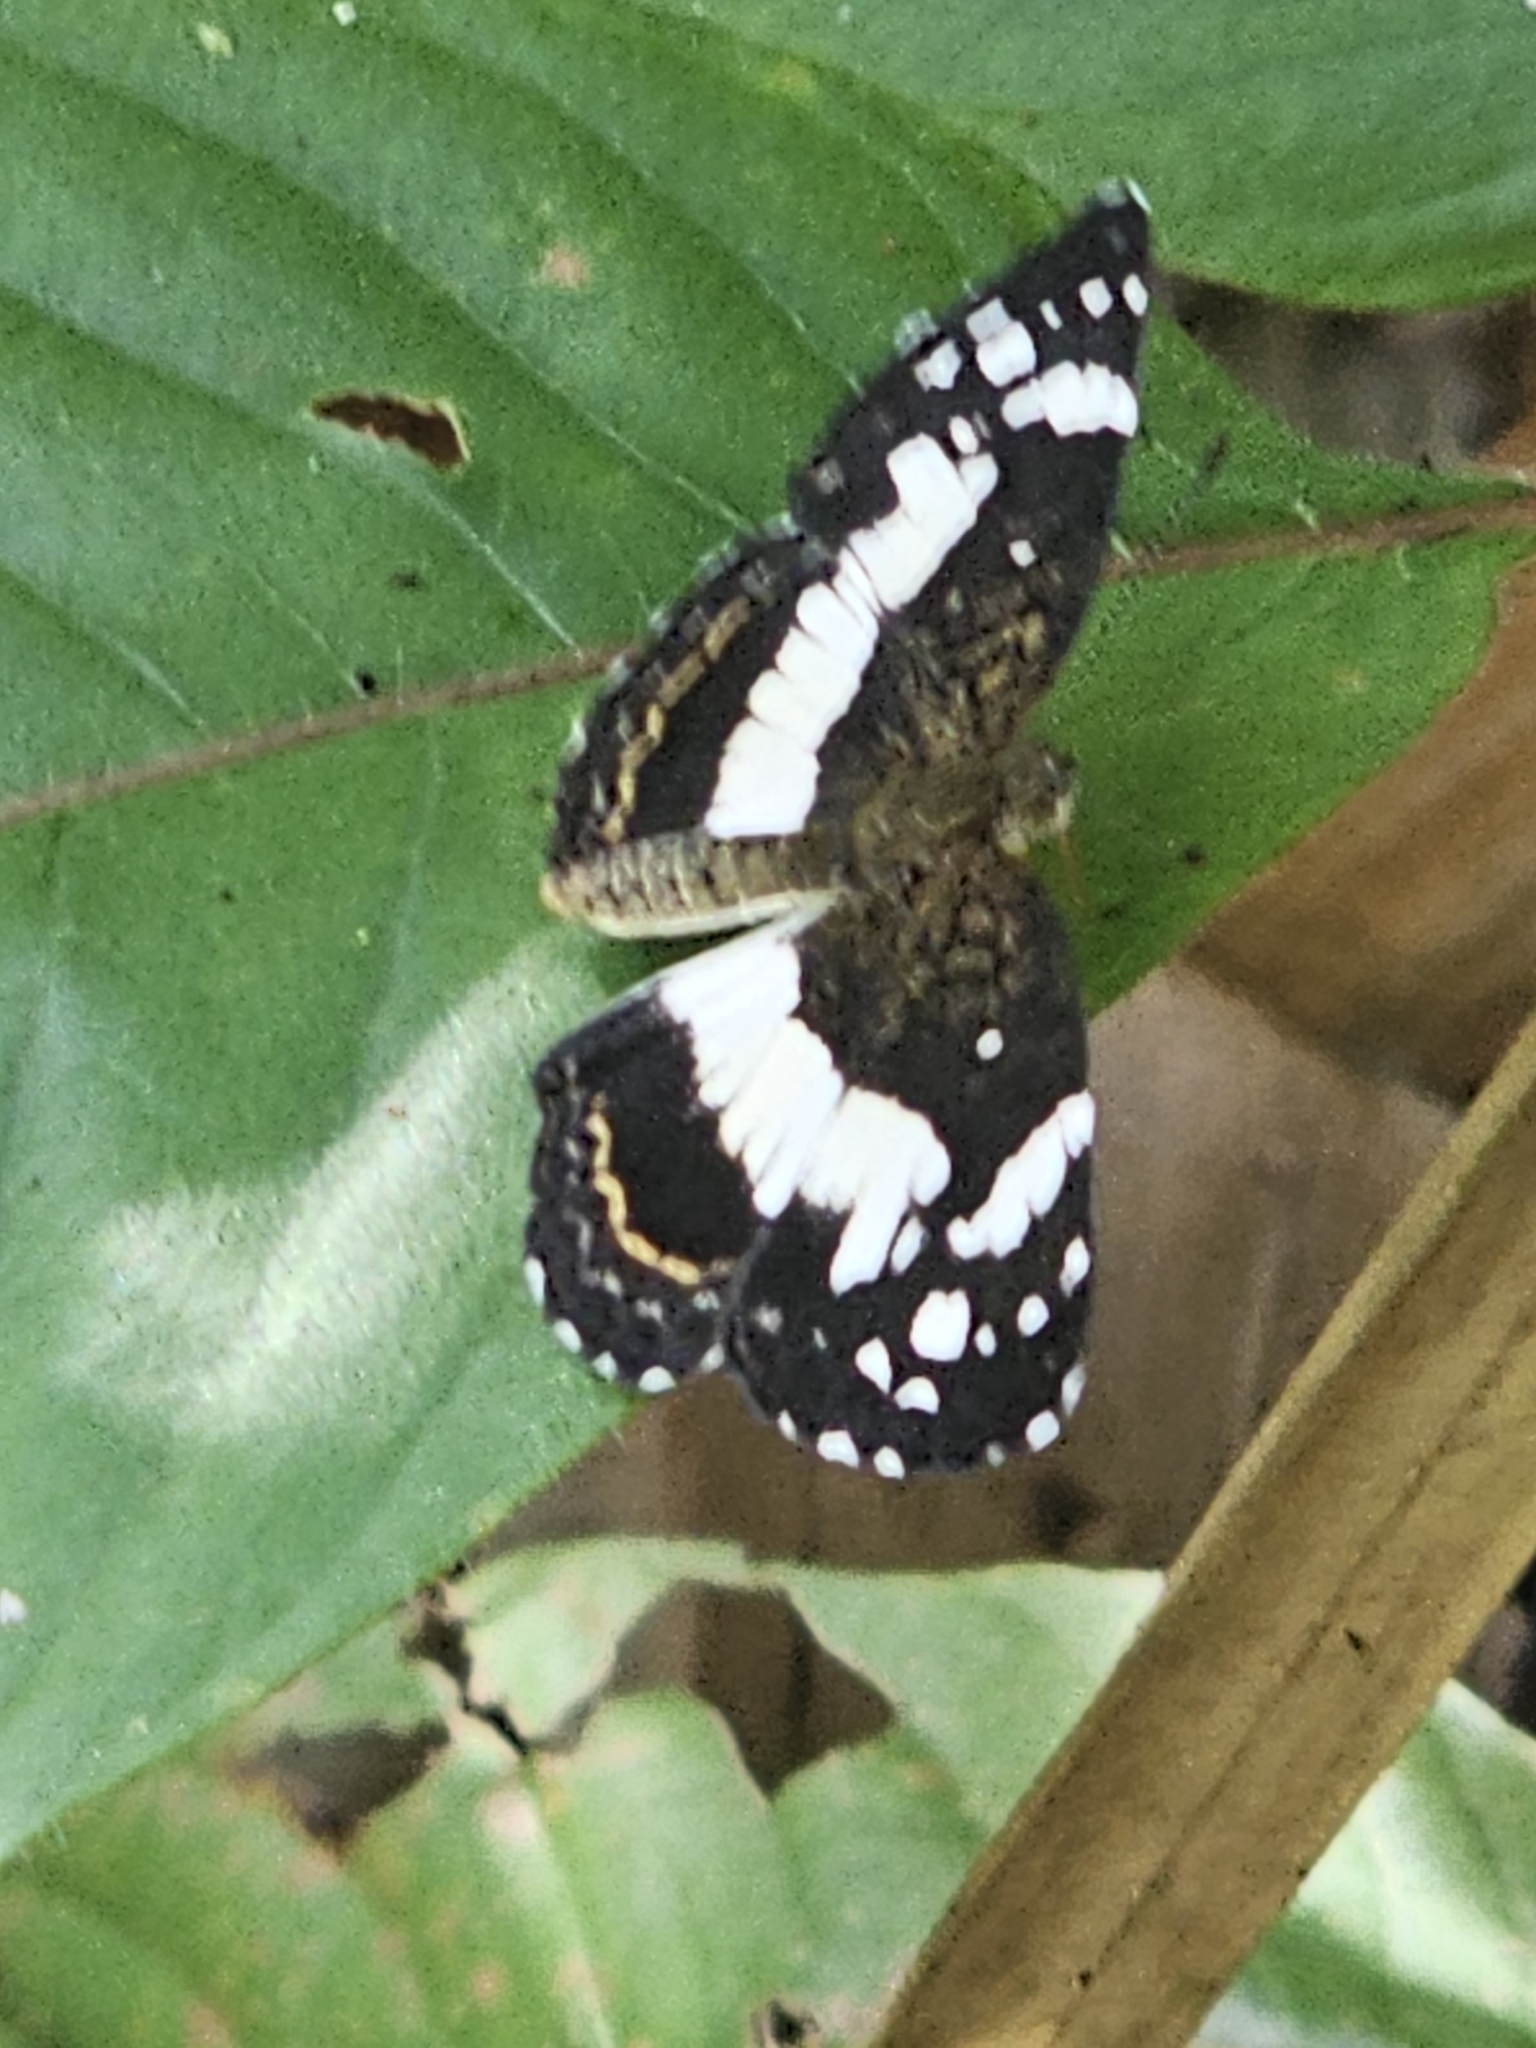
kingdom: Animalia
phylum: Arthropoda
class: Insecta
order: Lepidoptera
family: Nymphalidae
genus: Janatella
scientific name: Janatella hera
